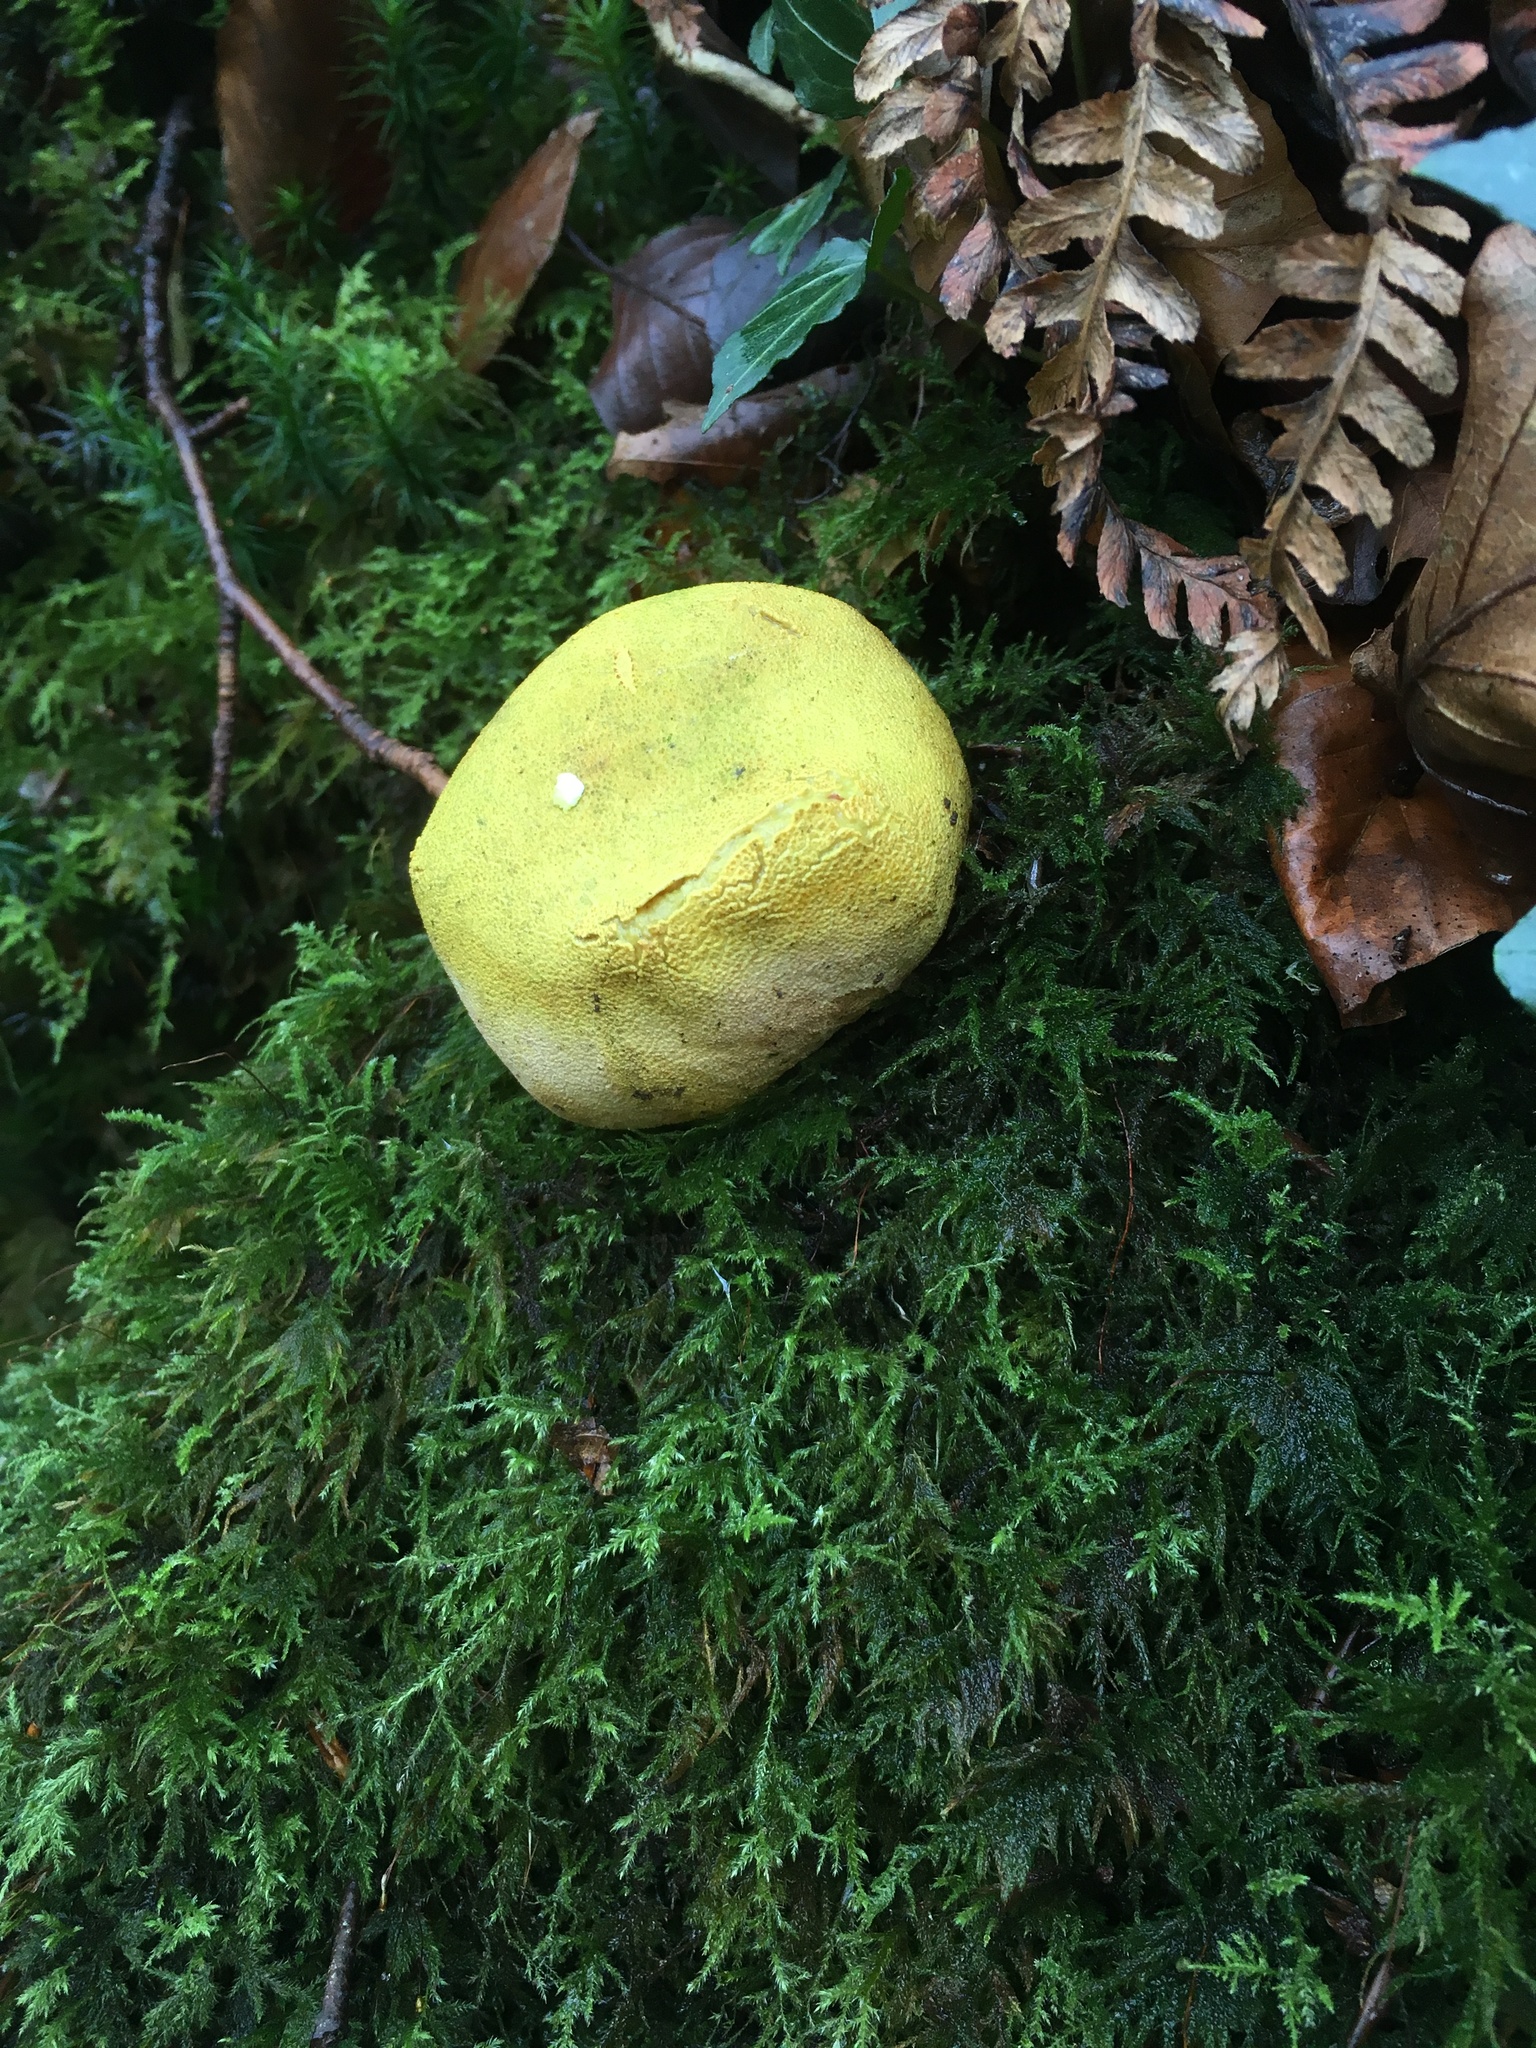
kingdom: Fungi
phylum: Basidiomycota
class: Agaricomycetes
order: Boletales
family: Sclerodermataceae
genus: Scleroderma
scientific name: Scleroderma citrinum
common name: Common earthball
